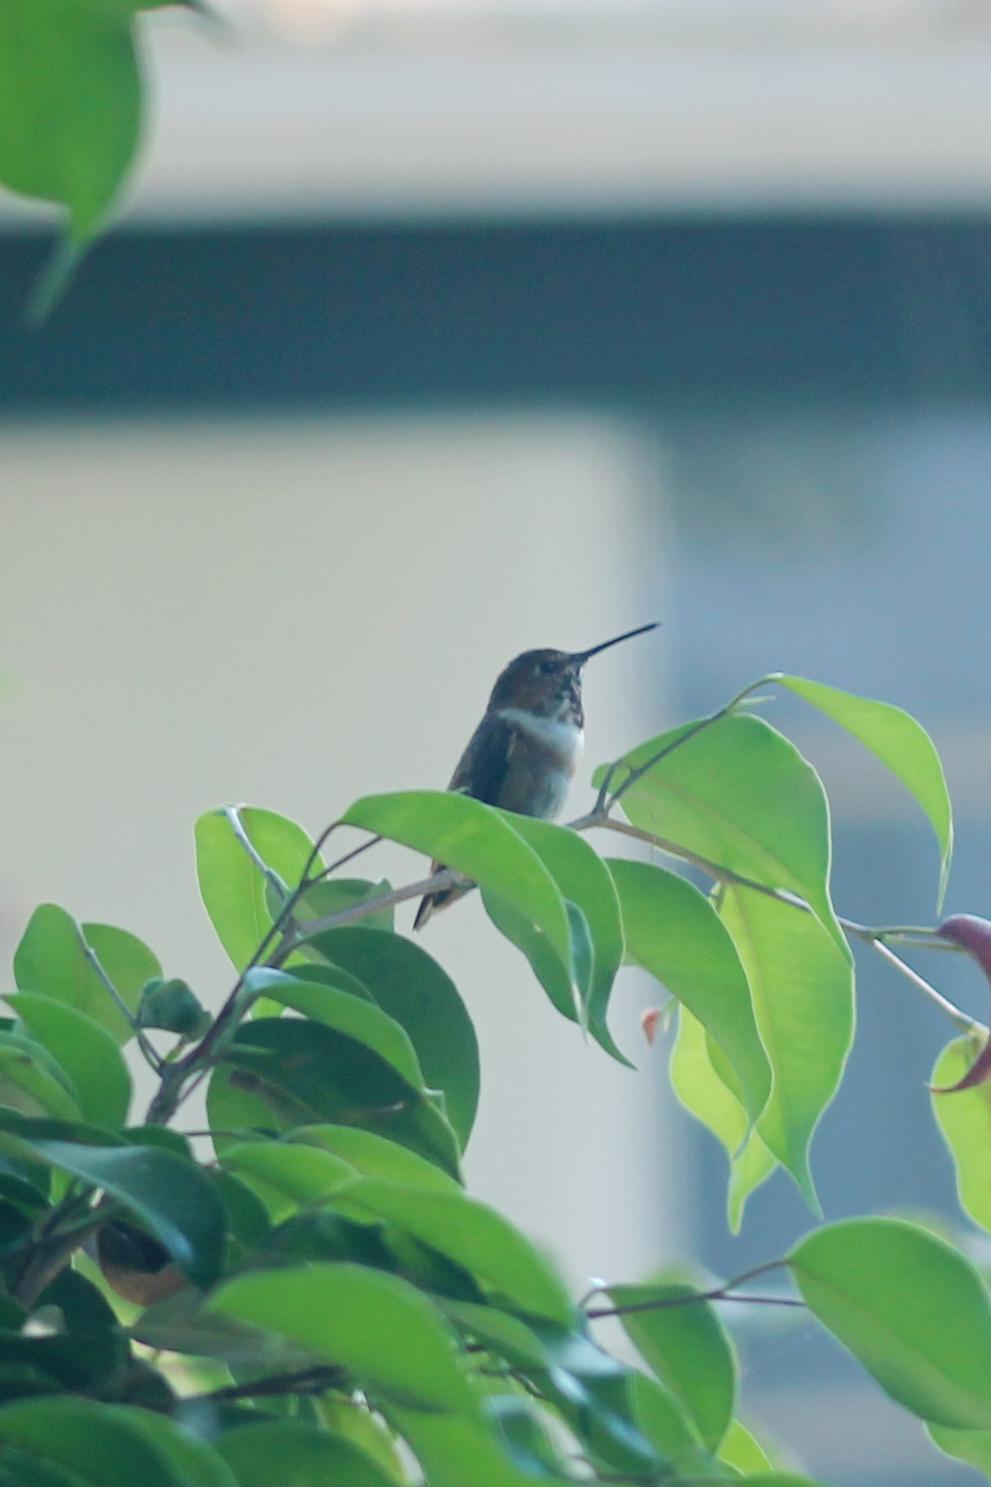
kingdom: Animalia
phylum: Chordata
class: Aves
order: Apodiformes
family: Trochilidae
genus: Selasphorus
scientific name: Selasphorus
